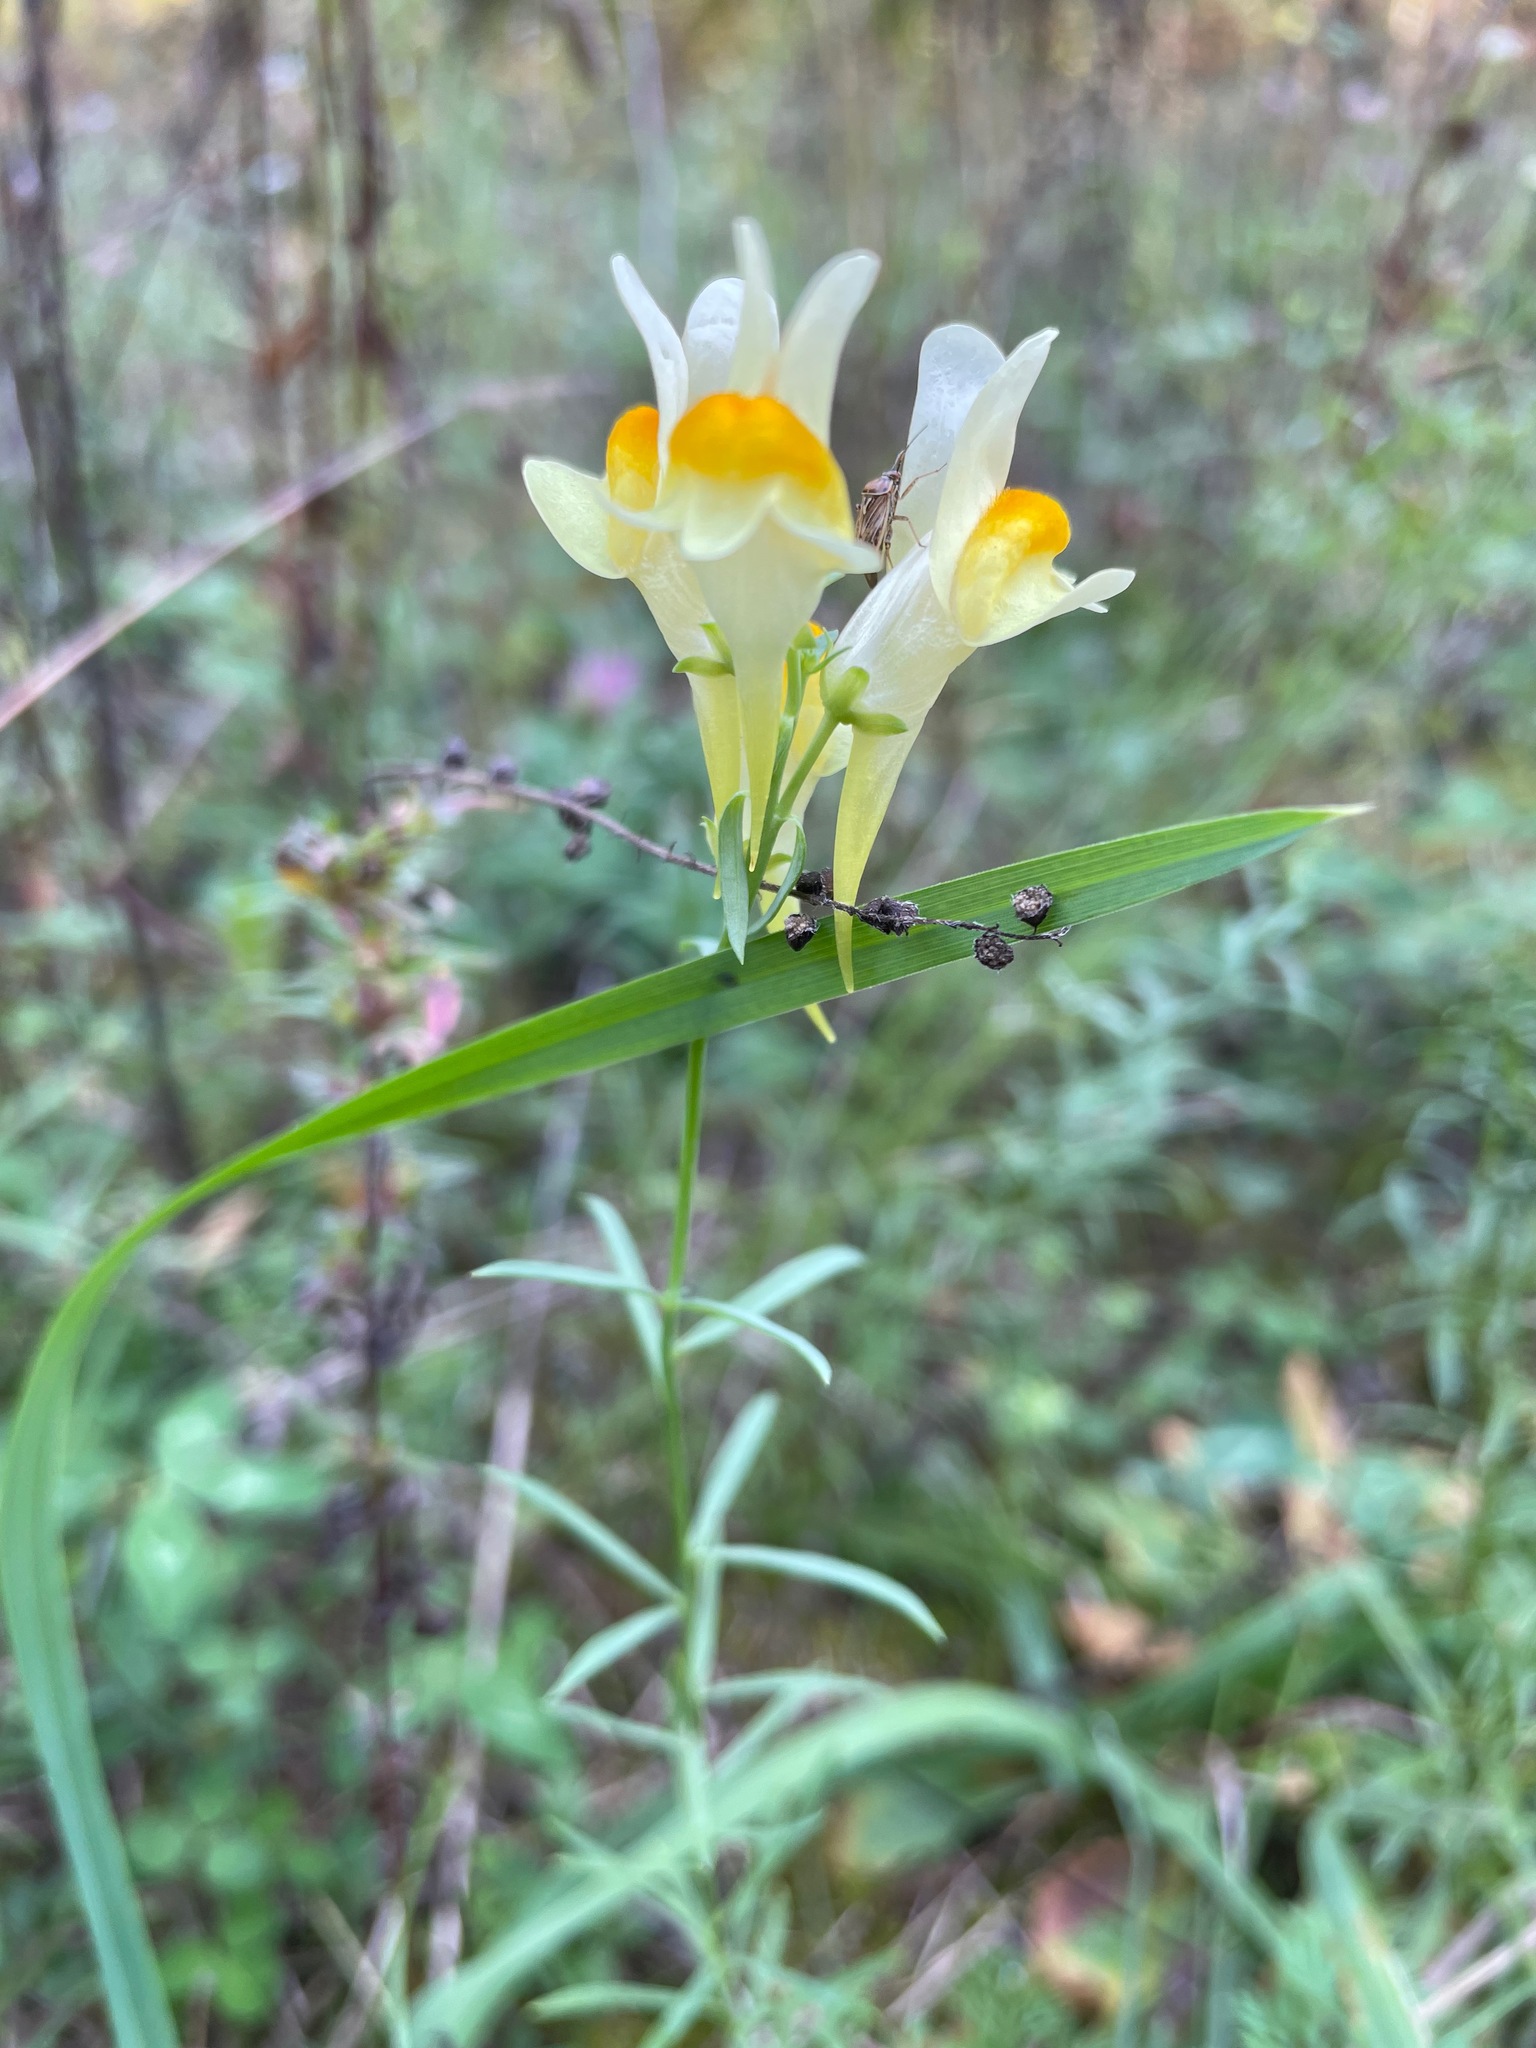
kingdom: Plantae
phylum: Tracheophyta
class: Magnoliopsida
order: Lamiales
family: Plantaginaceae
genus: Linaria
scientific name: Linaria vulgaris
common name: Butter and eggs
